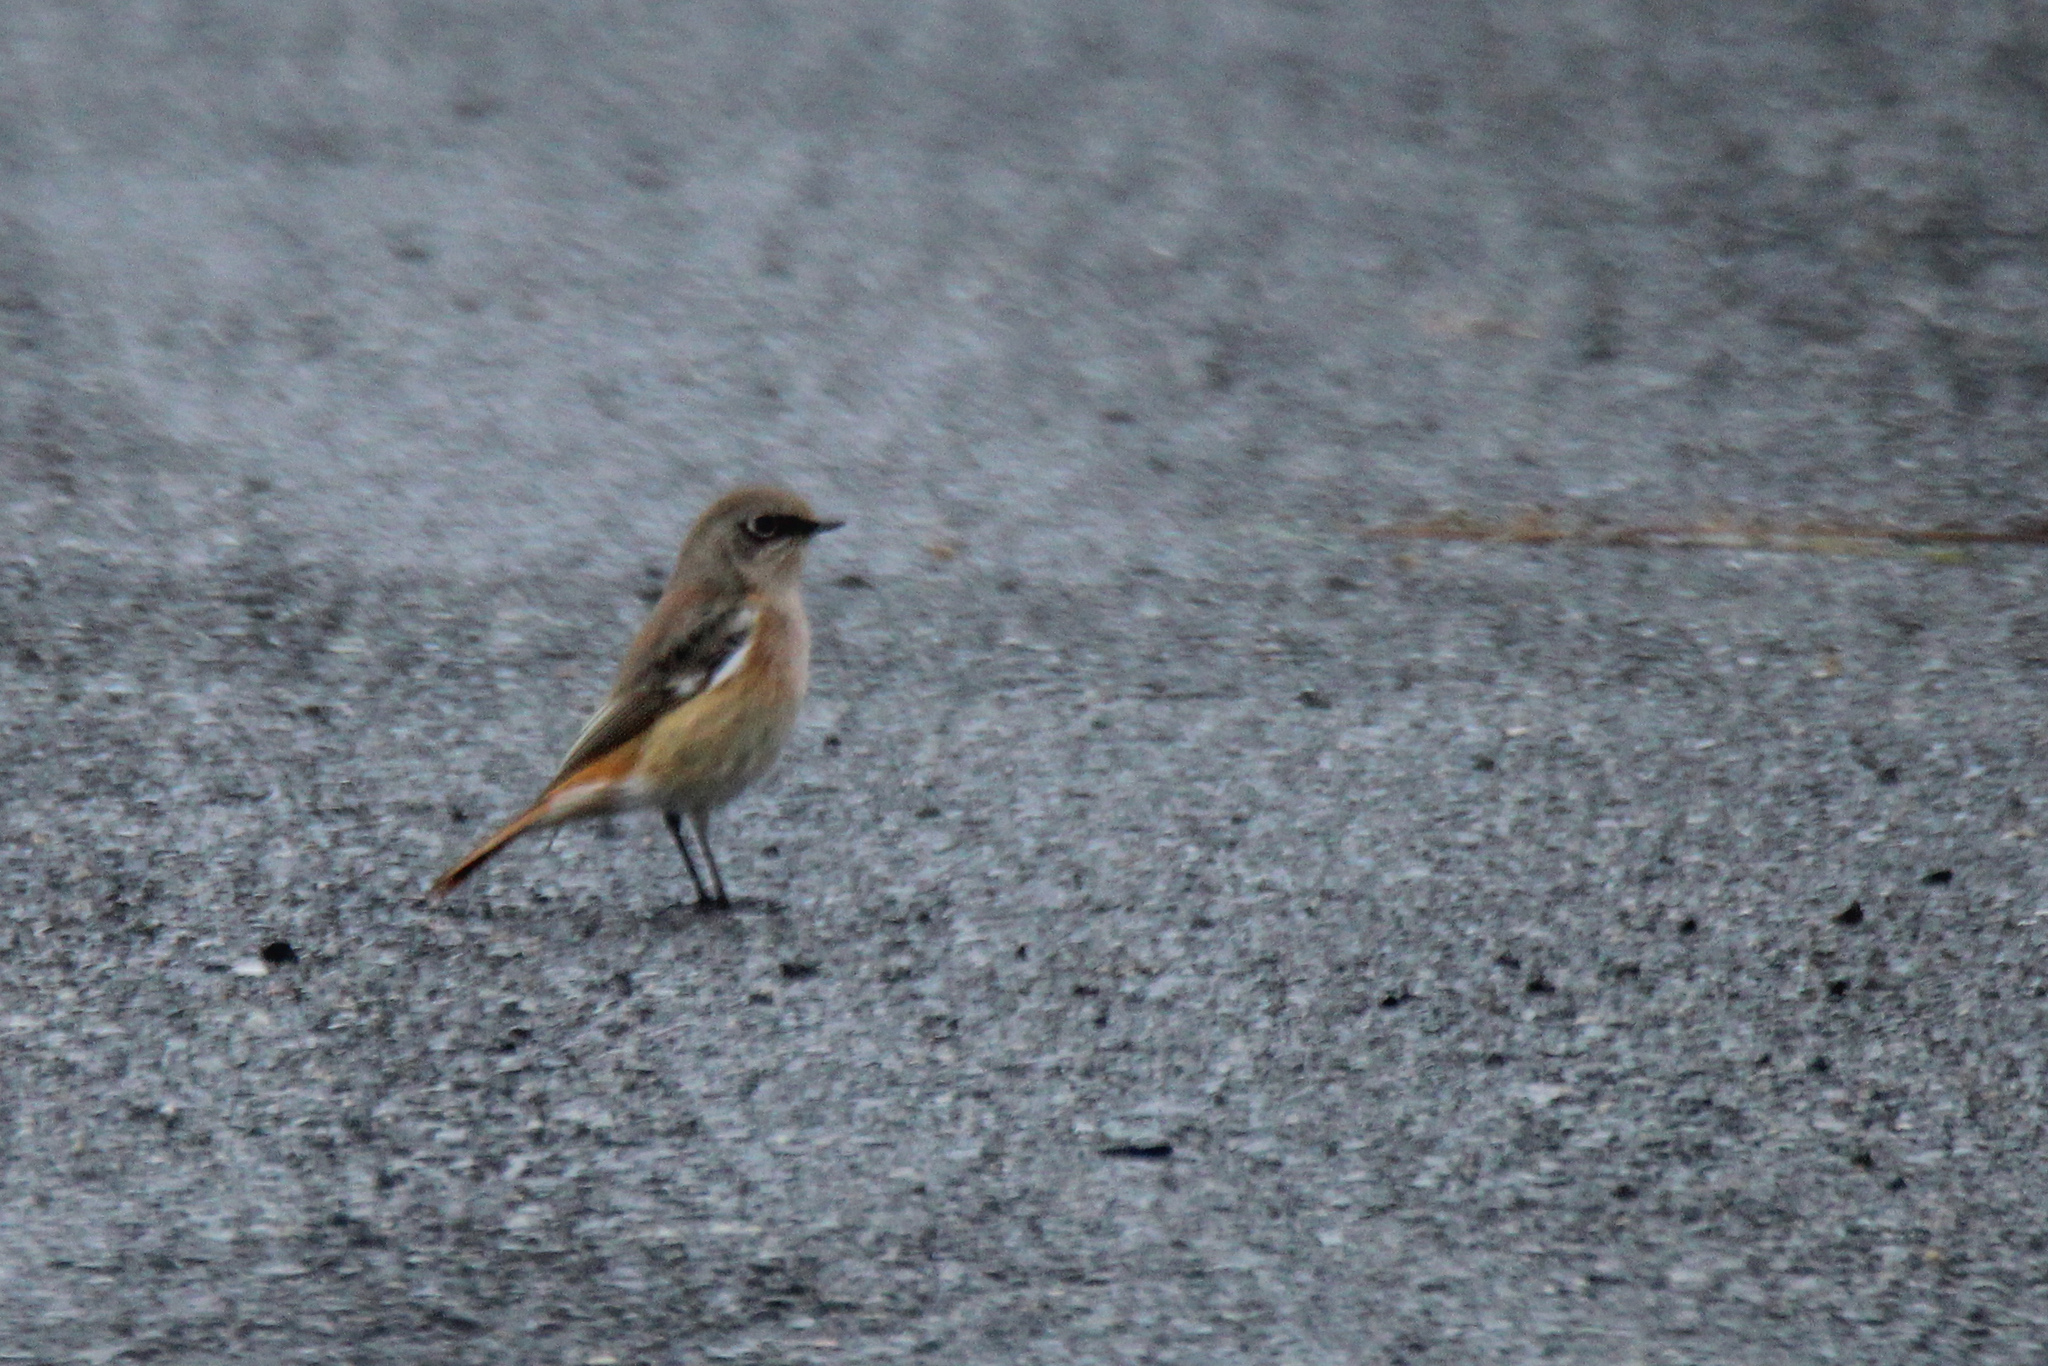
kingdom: Animalia
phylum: Chordata
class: Aves
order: Passeriformes
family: Muscicapidae
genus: Phoenicurus
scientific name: Phoenicurus erythronotus
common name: Eversmann's redstart
